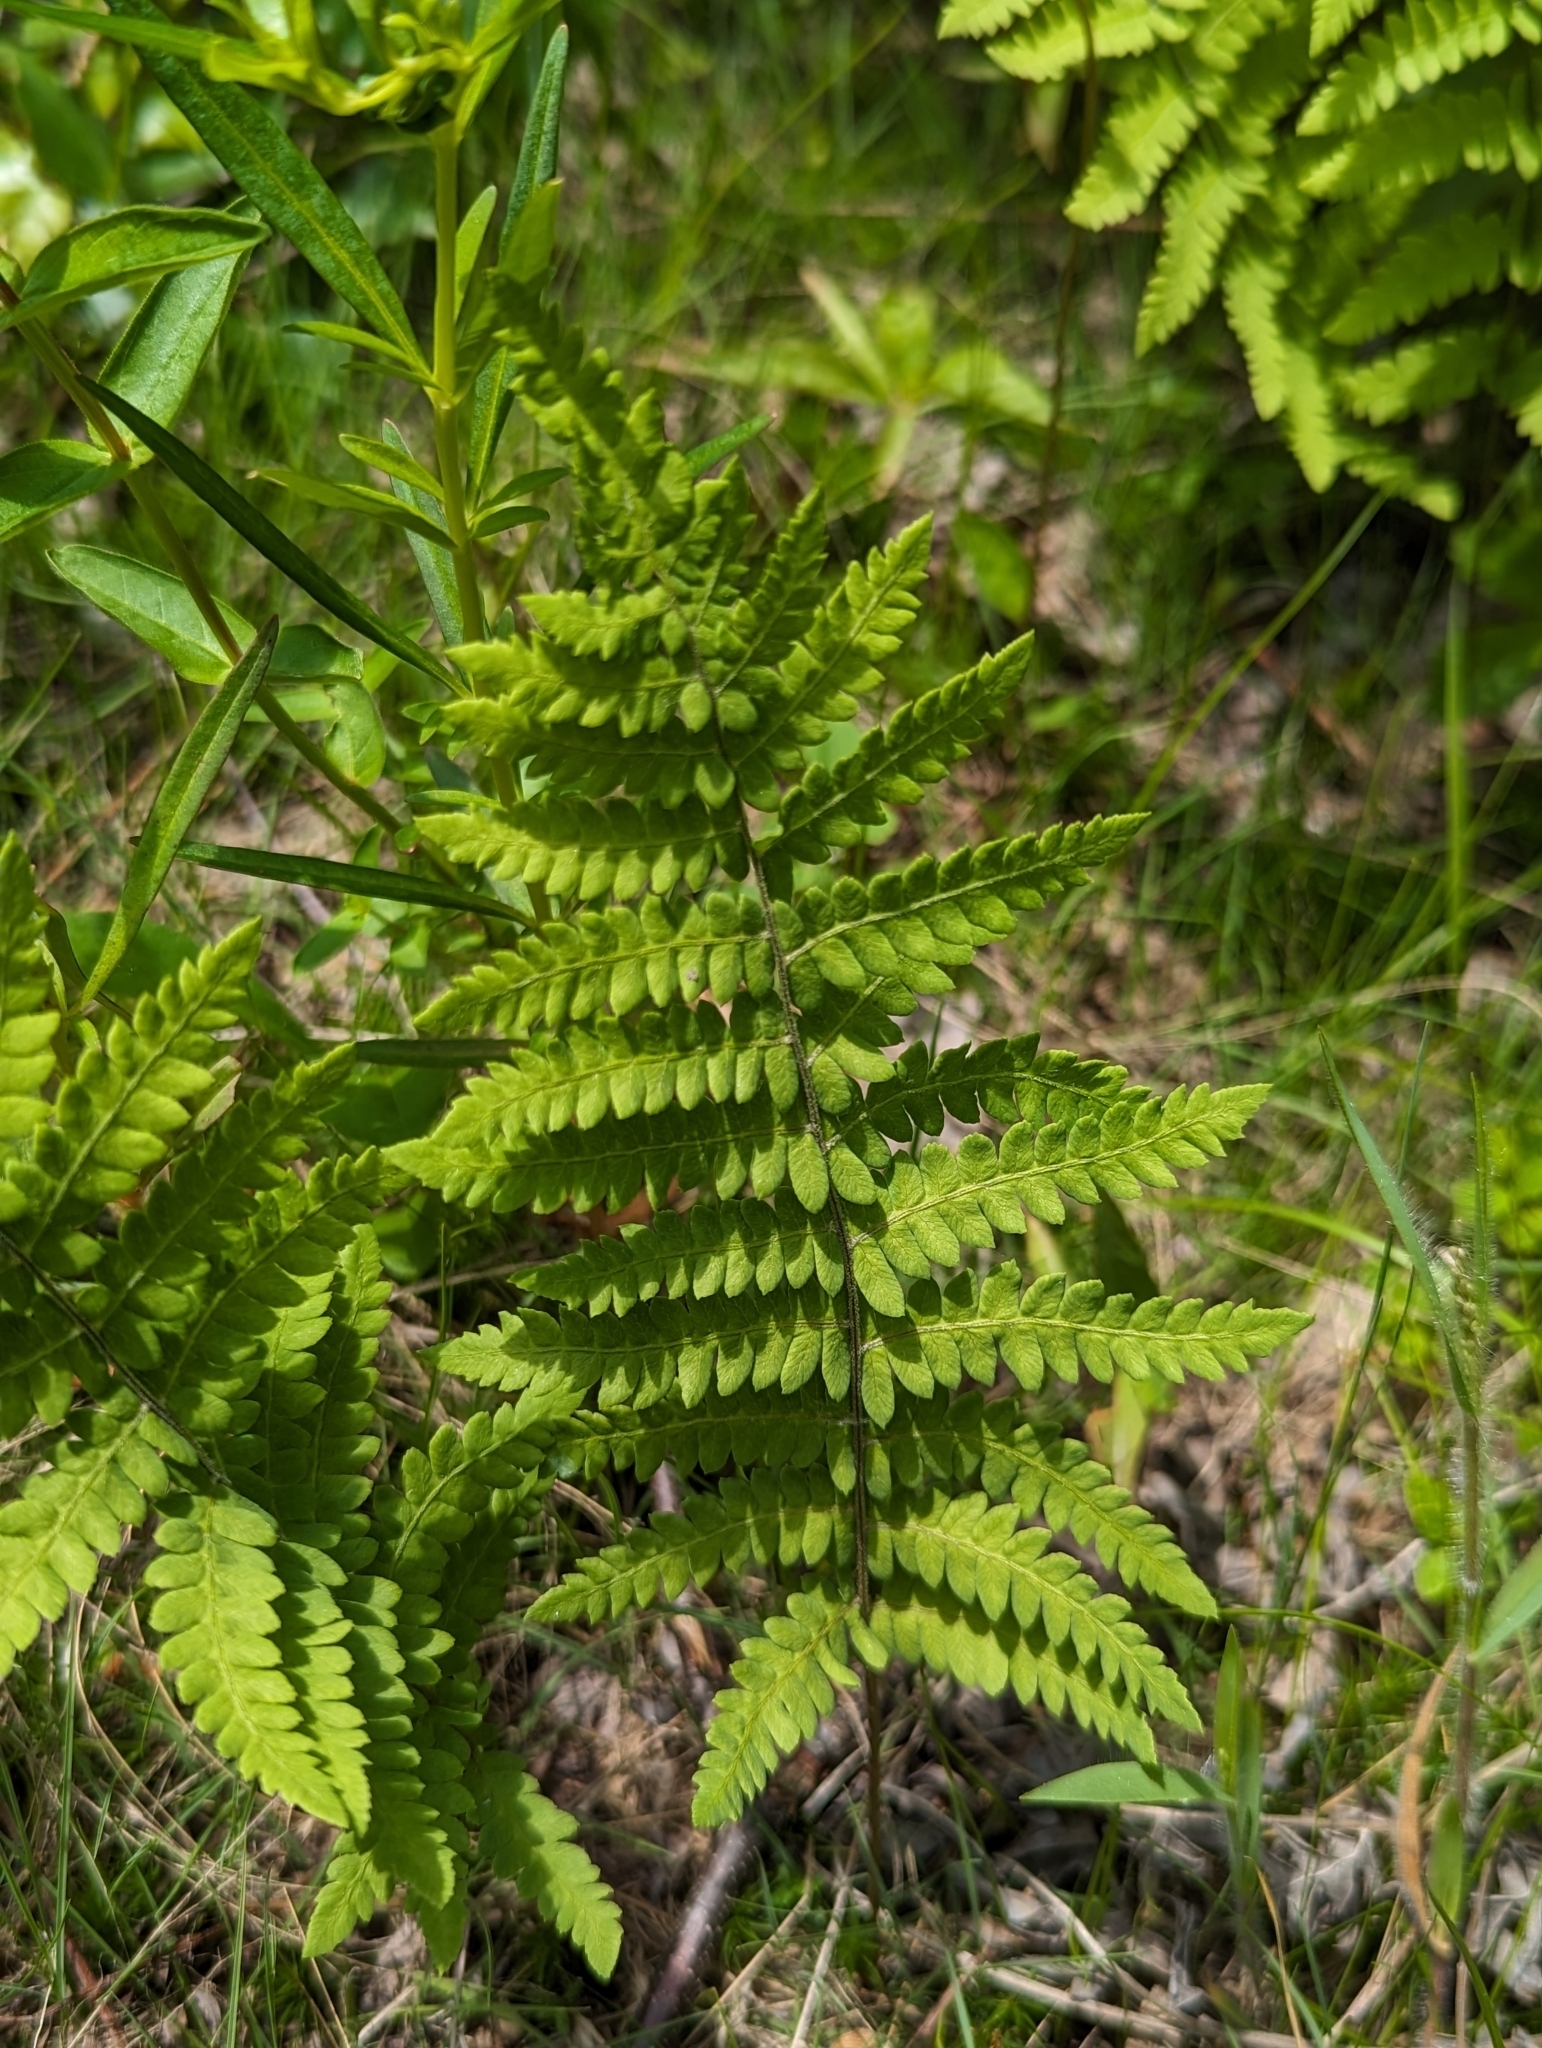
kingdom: Plantae
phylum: Tracheophyta
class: Polypodiopsida
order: Polypodiales
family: Thelypteridaceae
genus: Thelypteris
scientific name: Thelypteris palustris
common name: Marsh fern
